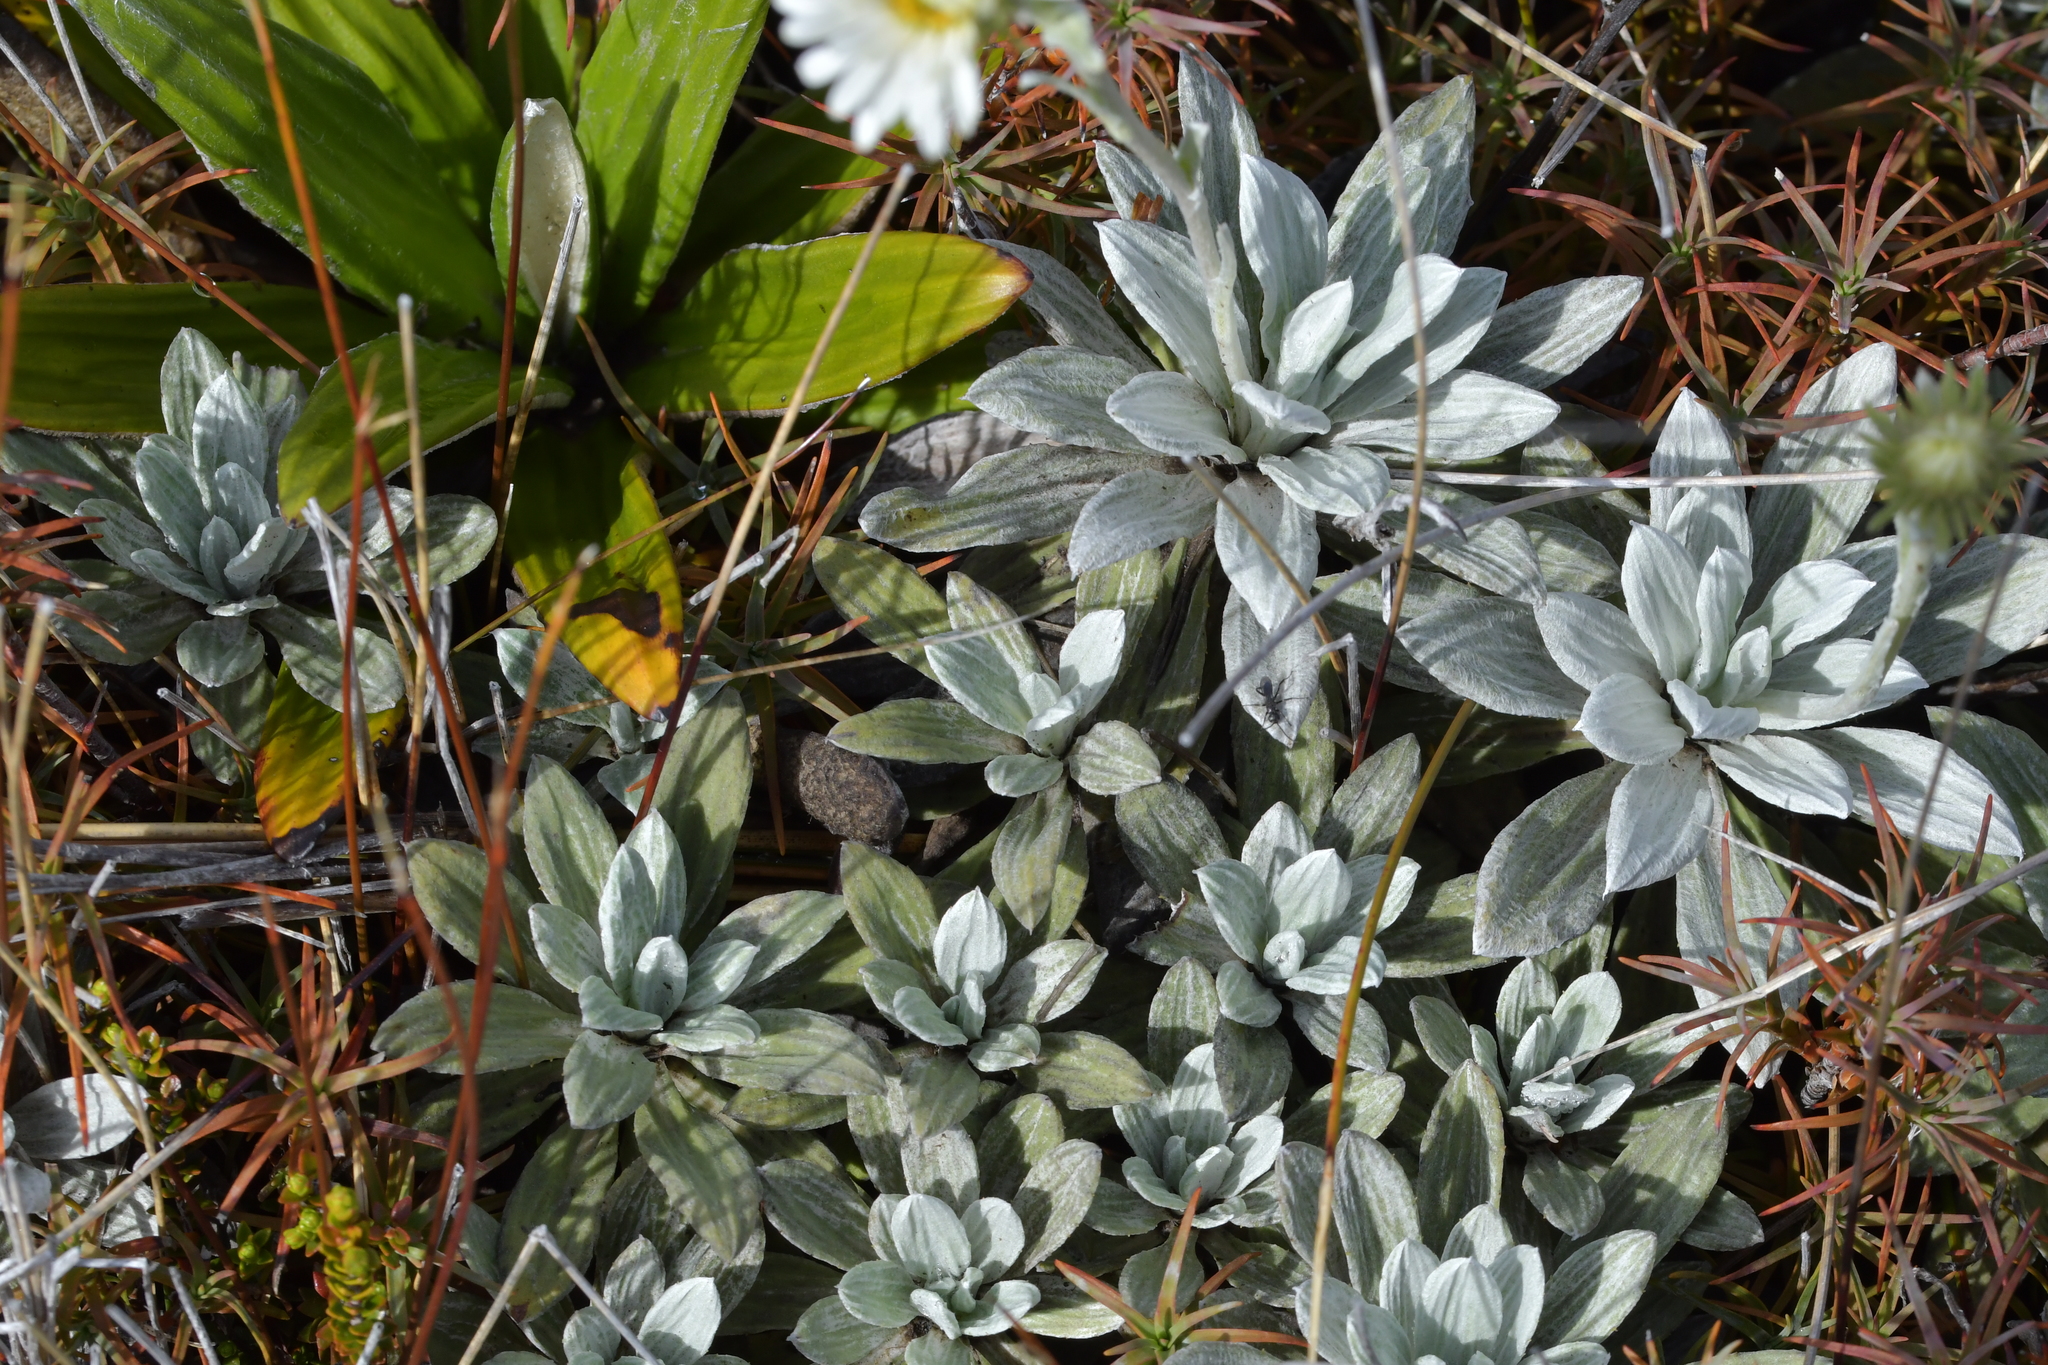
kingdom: Plantae
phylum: Tracheophyta
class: Magnoliopsida
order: Asterales
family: Asteraceae
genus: Celmisia
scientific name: Celmisia incana
